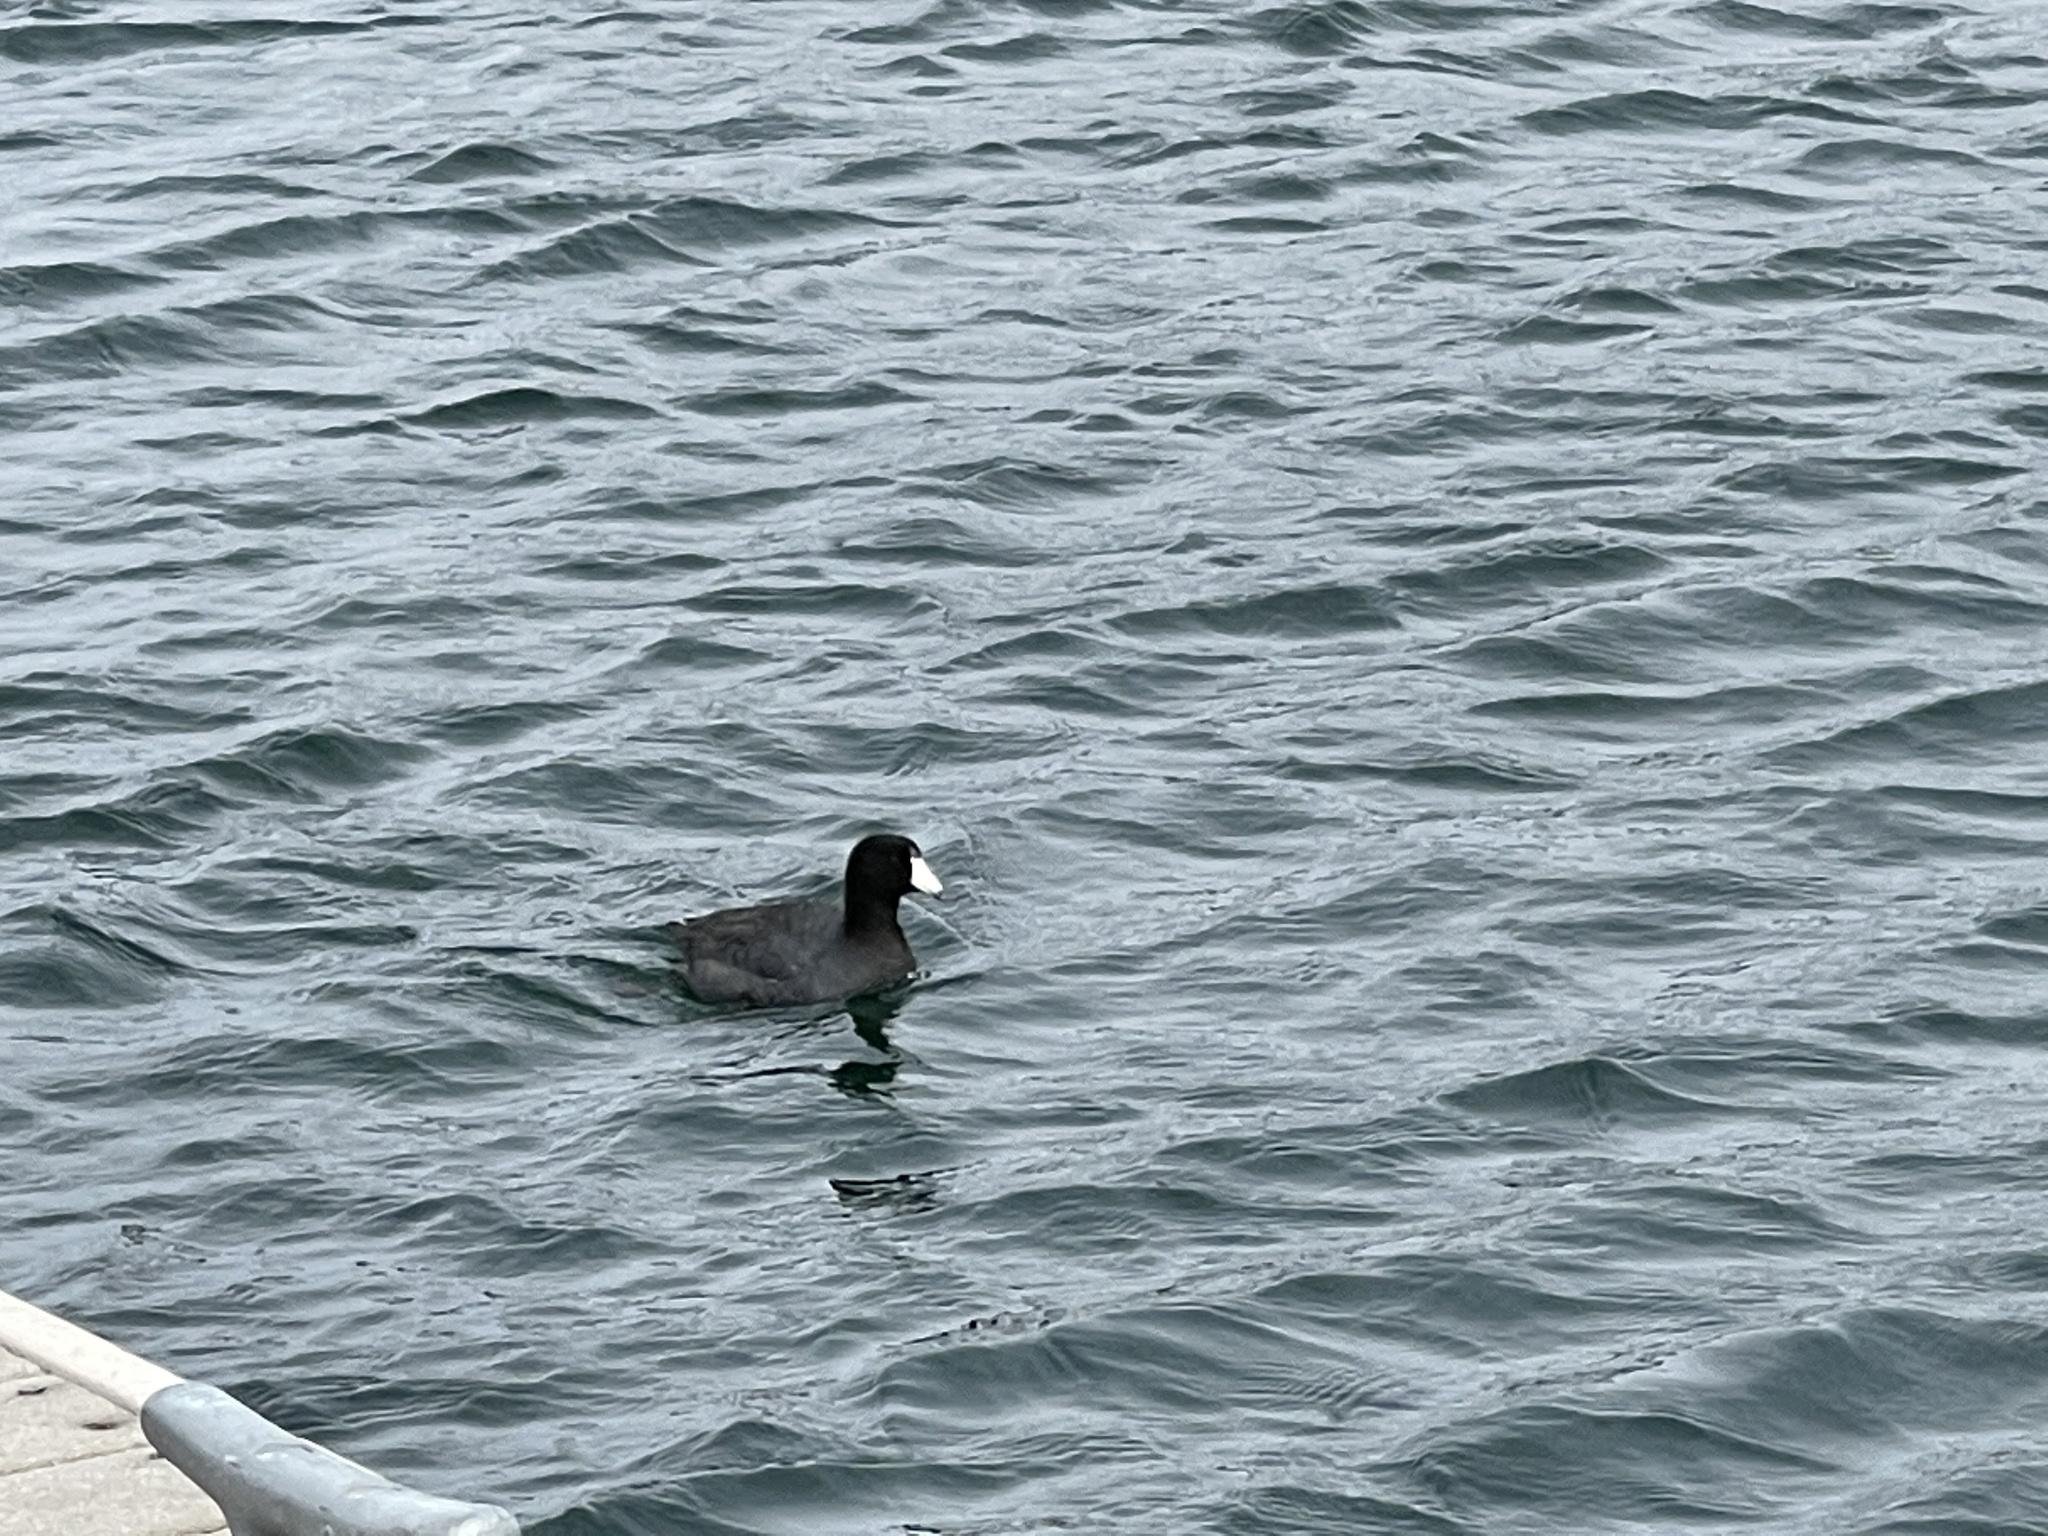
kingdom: Animalia
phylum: Chordata
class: Aves
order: Gruiformes
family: Rallidae
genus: Fulica
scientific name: Fulica americana
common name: American coot
